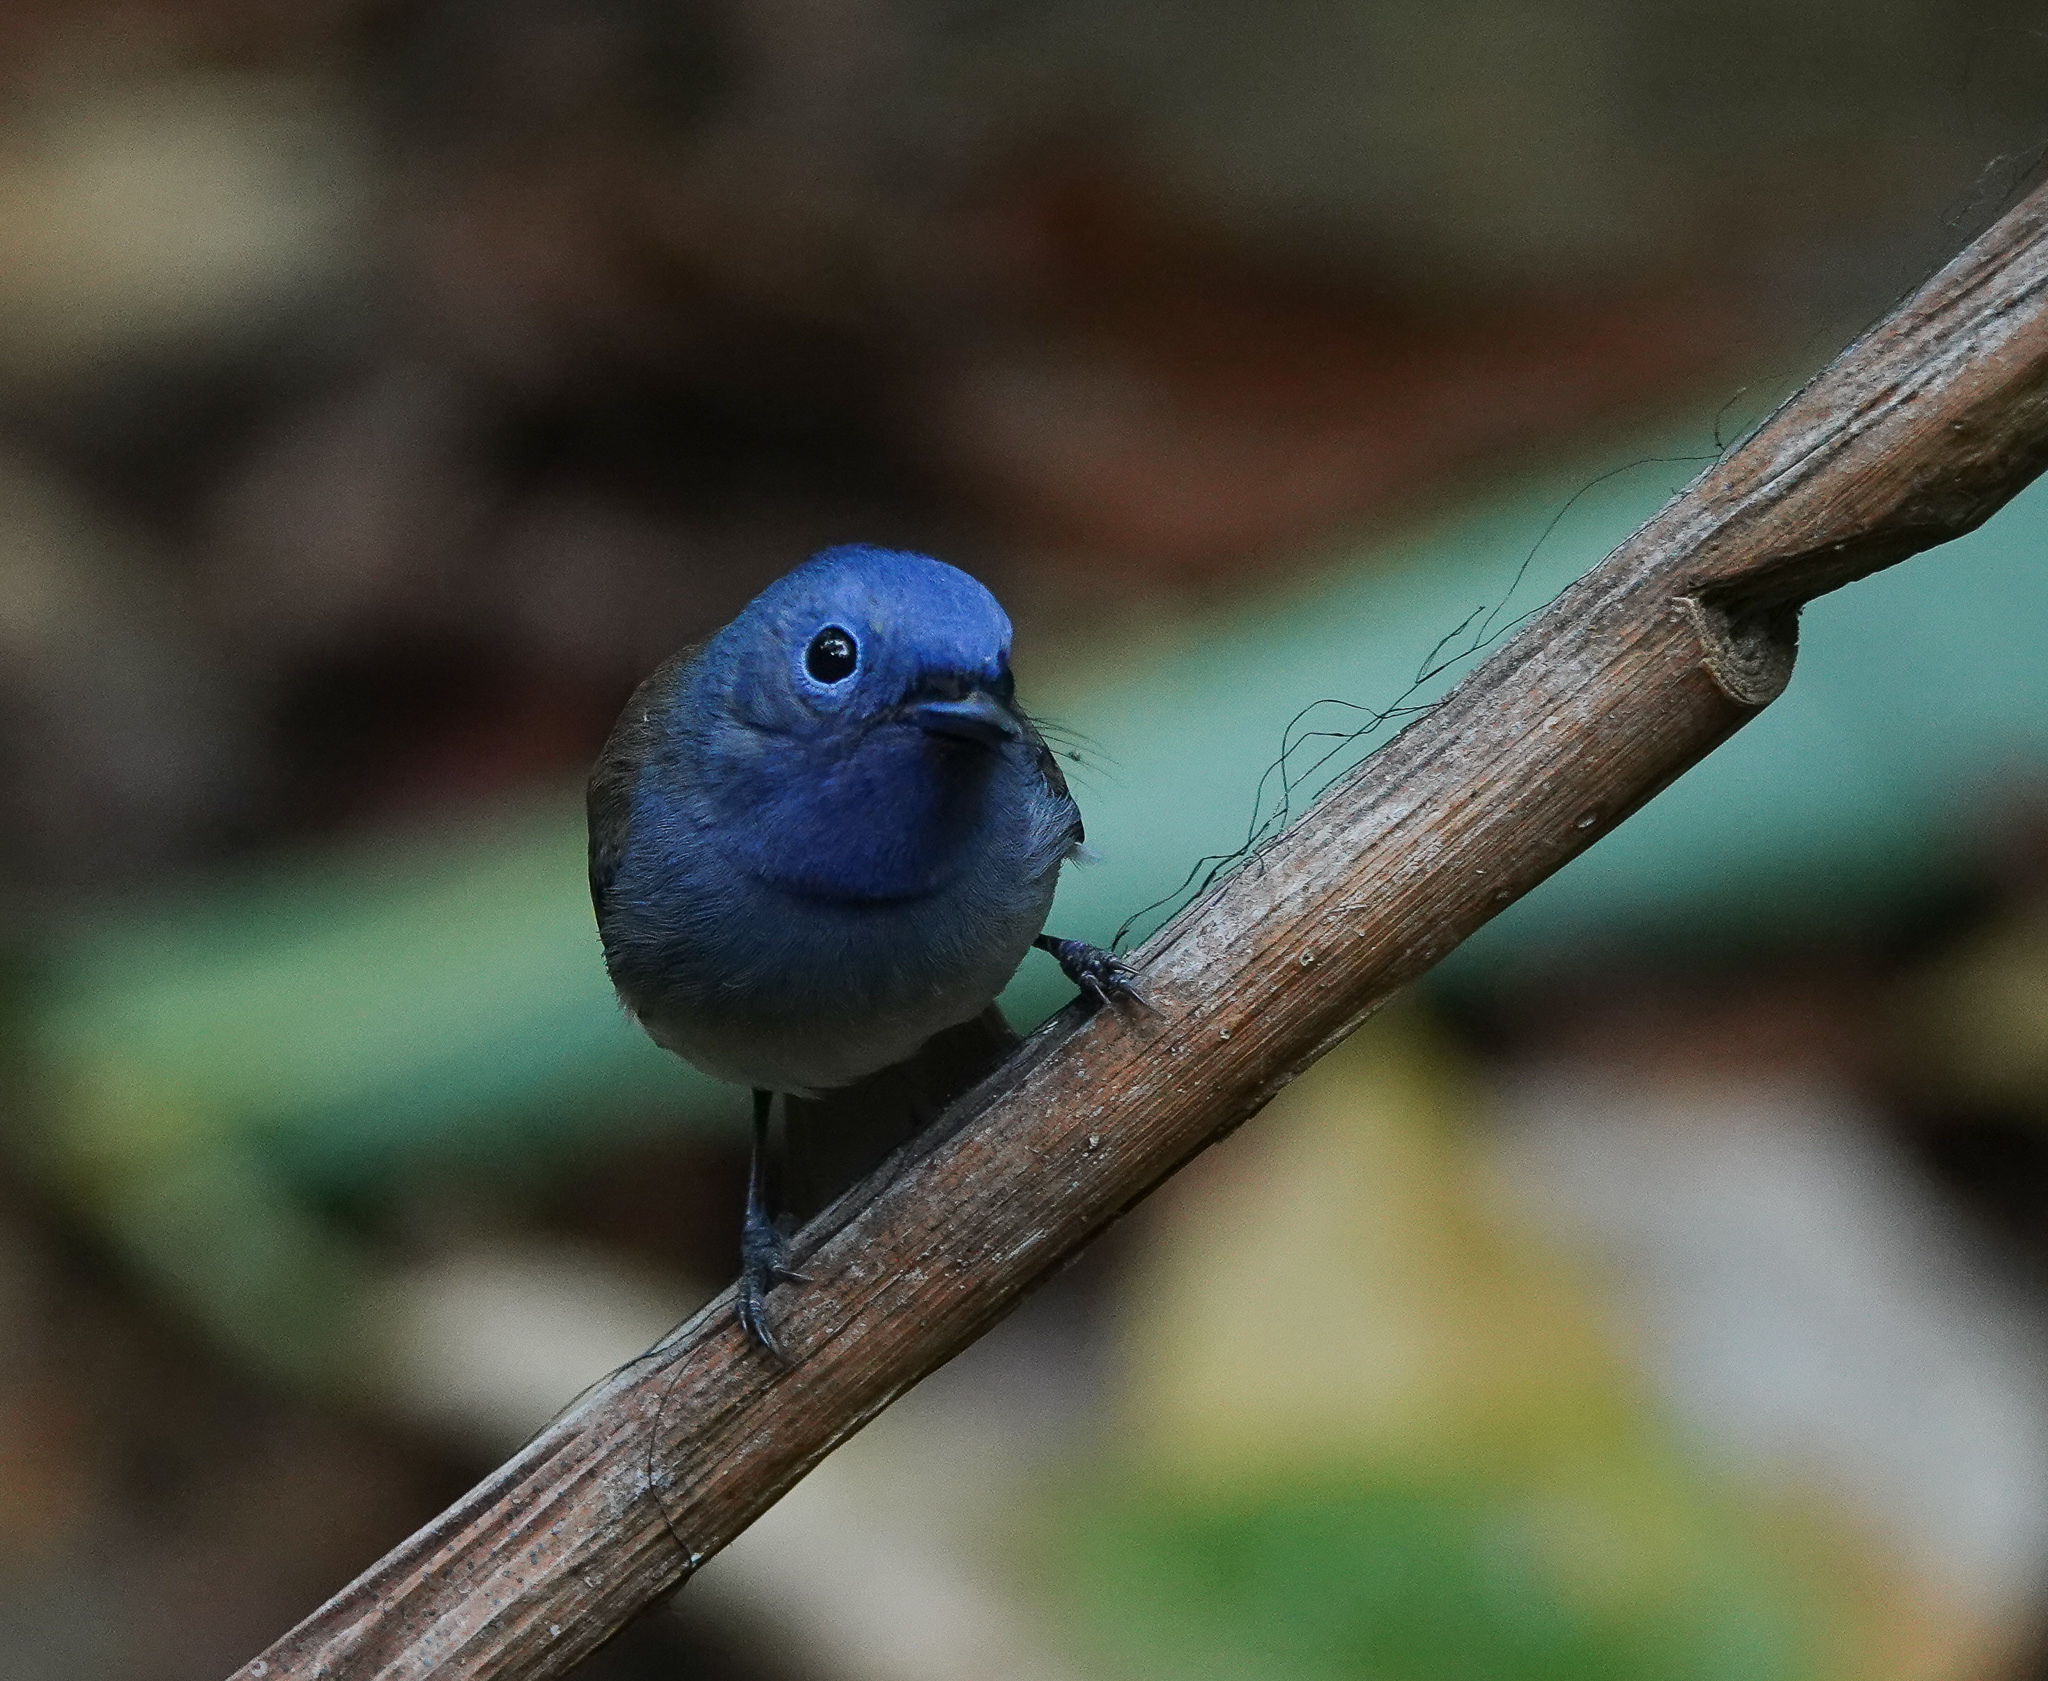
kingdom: Animalia
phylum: Chordata
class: Aves
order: Passeriformes
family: Monarchidae
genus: Hypothymis
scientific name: Hypothymis azurea
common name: Black-naped monarch
